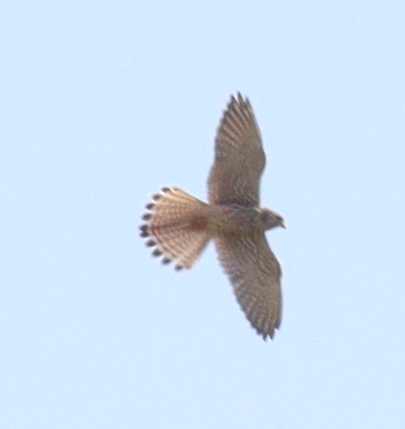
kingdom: Animalia
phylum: Chordata
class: Aves
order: Falconiformes
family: Falconidae
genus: Falco
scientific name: Falco tinnunculus
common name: Common kestrel
